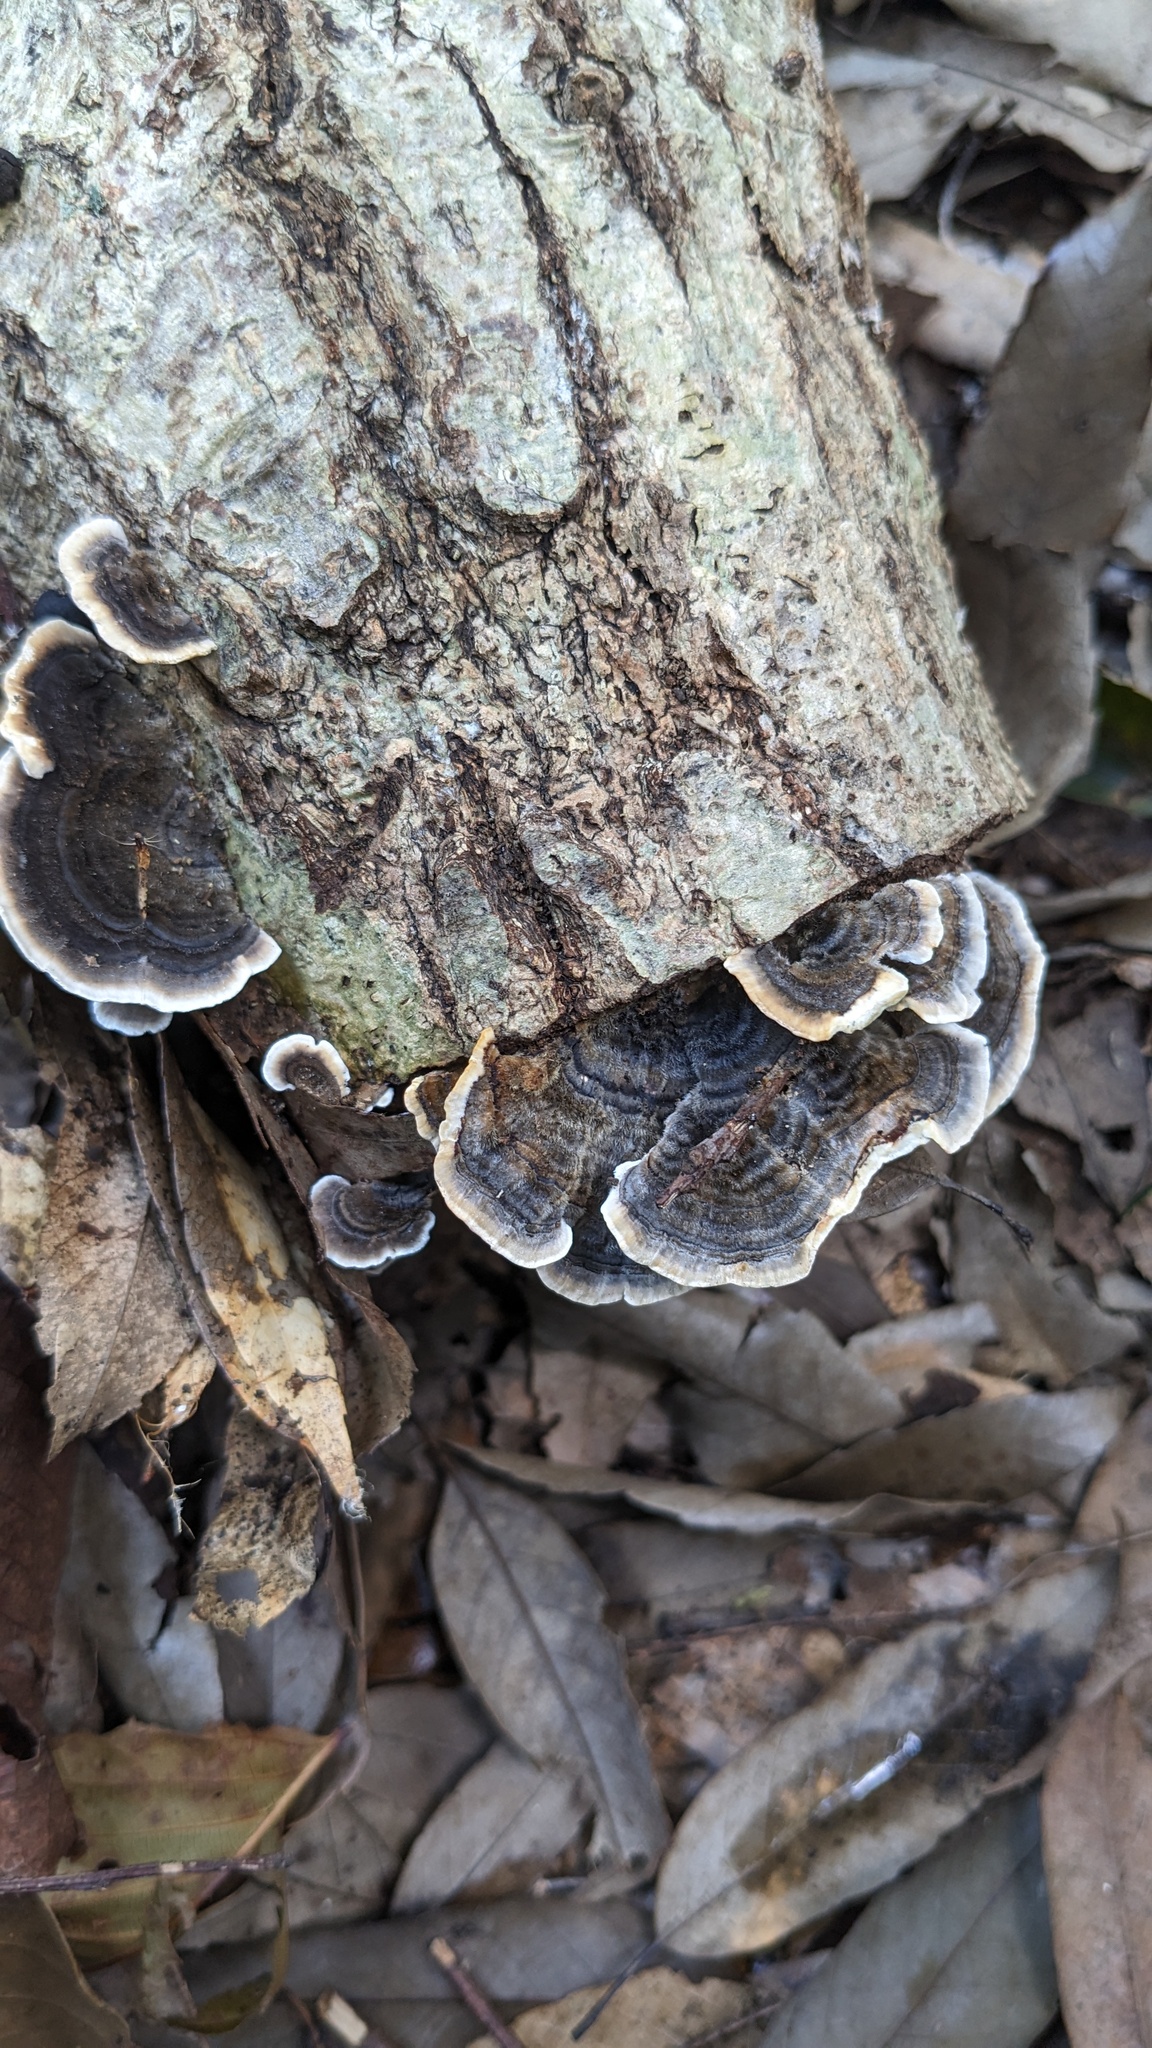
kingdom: Fungi
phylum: Basidiomycota
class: Agaricomycetes
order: Polyporales
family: Polyporaceae
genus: Trametes
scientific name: Trametes versicolor
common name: Turkeytail
